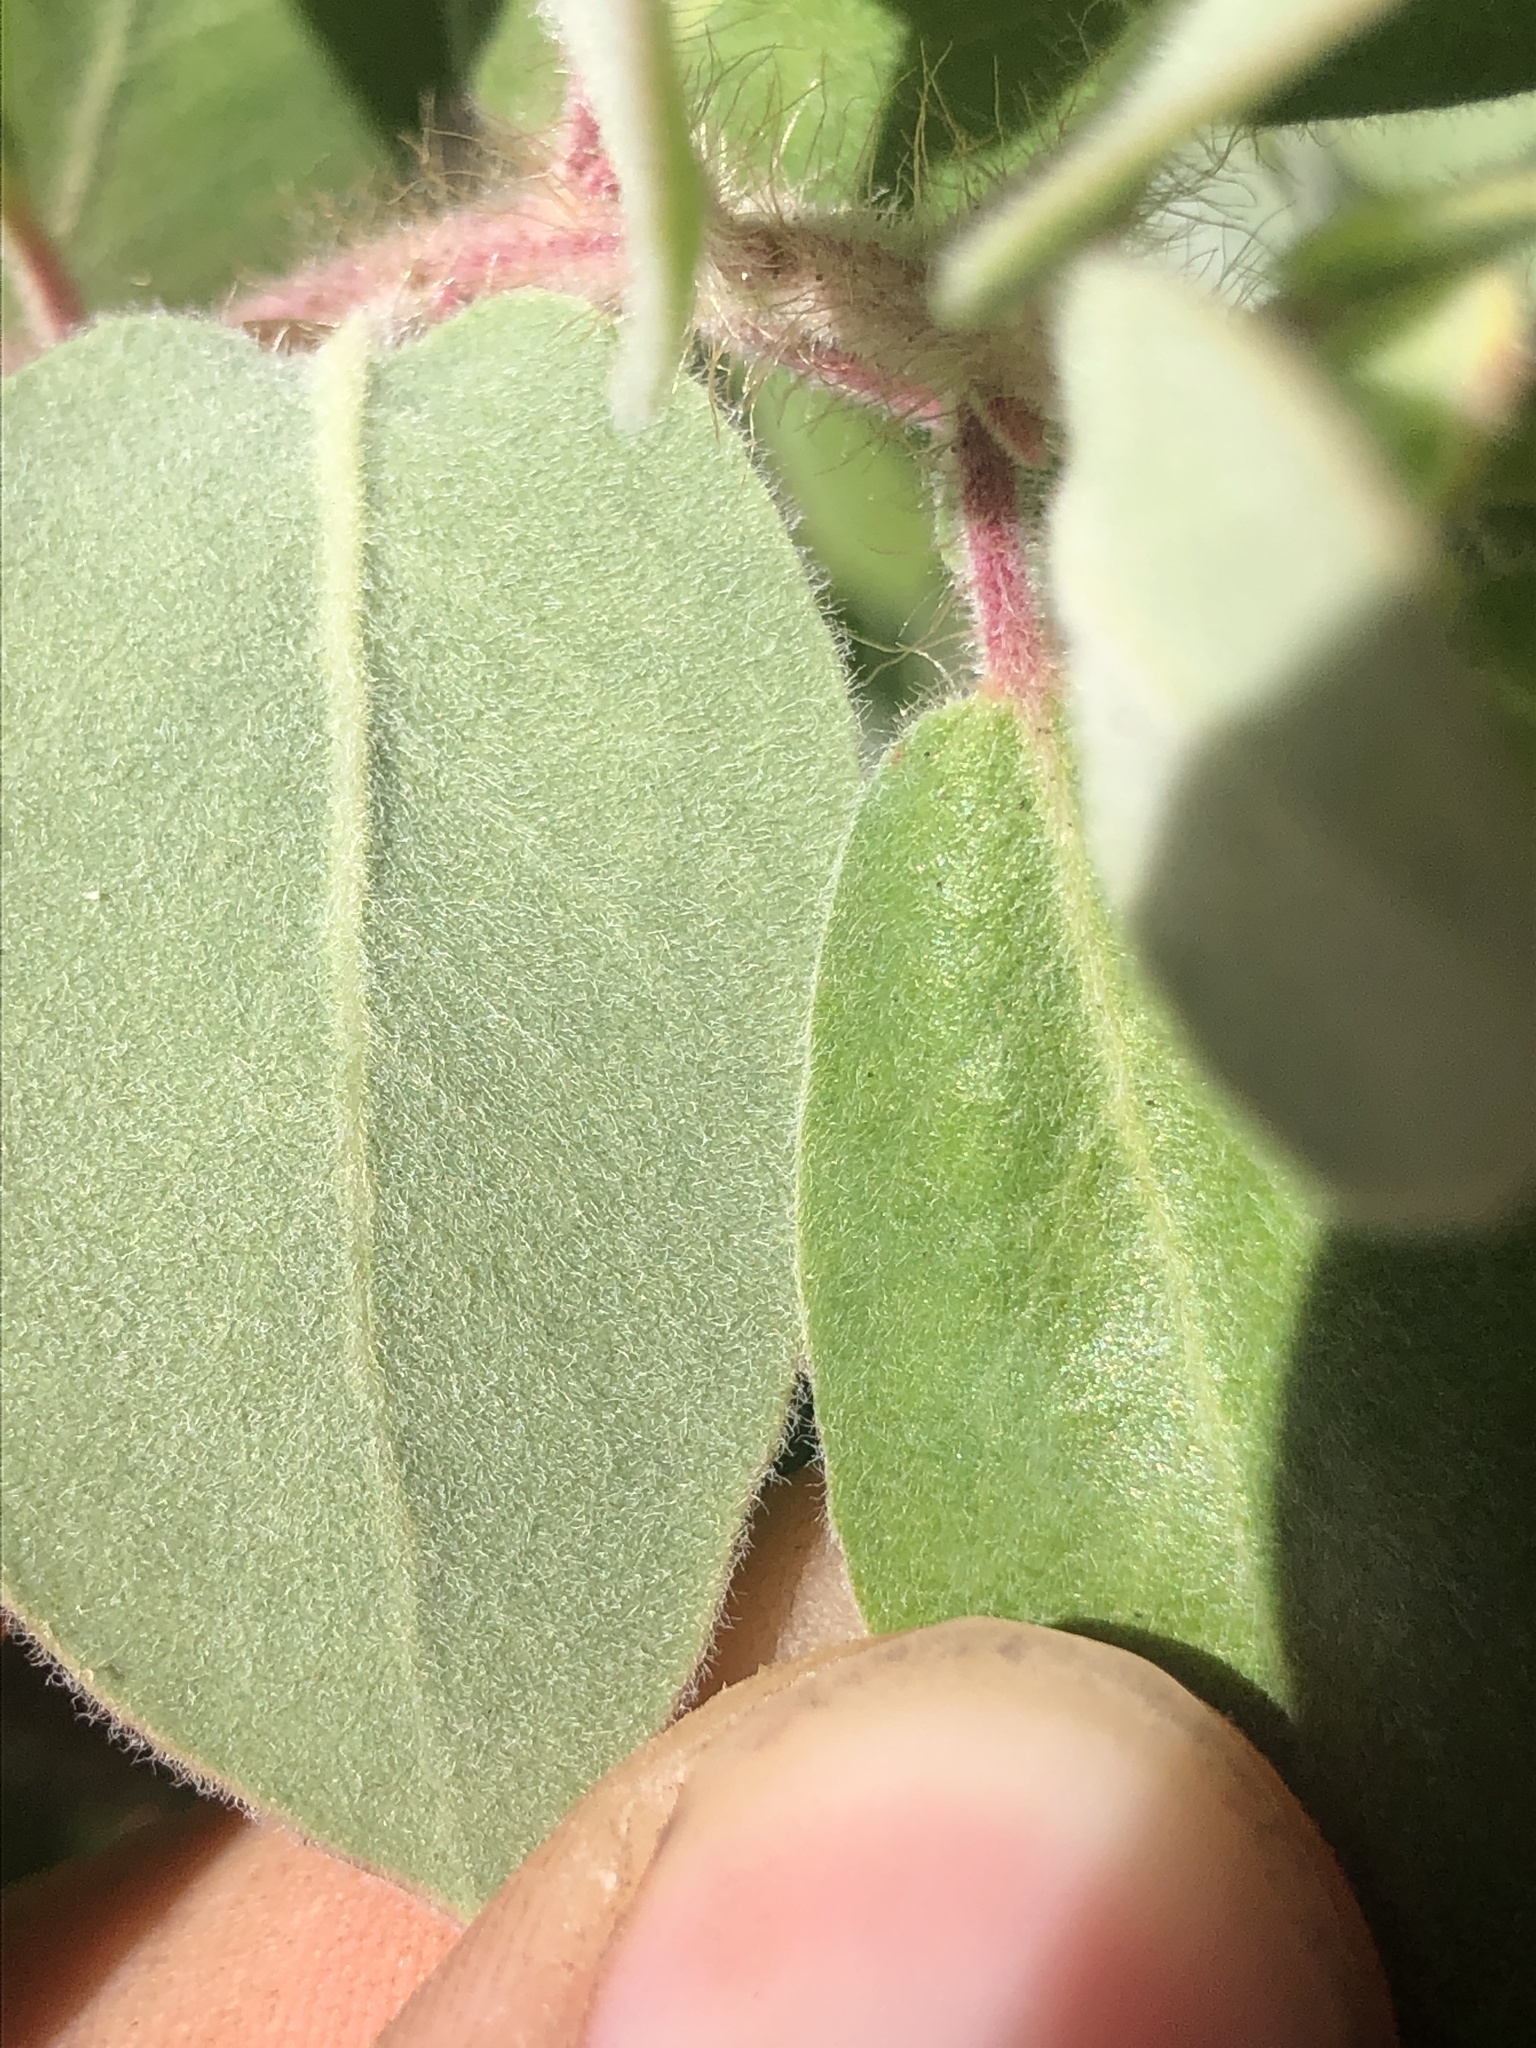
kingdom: Plantae
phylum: Tracheophyta
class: Magnoliopsida
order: Ericales
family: Ericaceae
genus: Arctostaphylos
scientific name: Arctostaphylos crustacea
